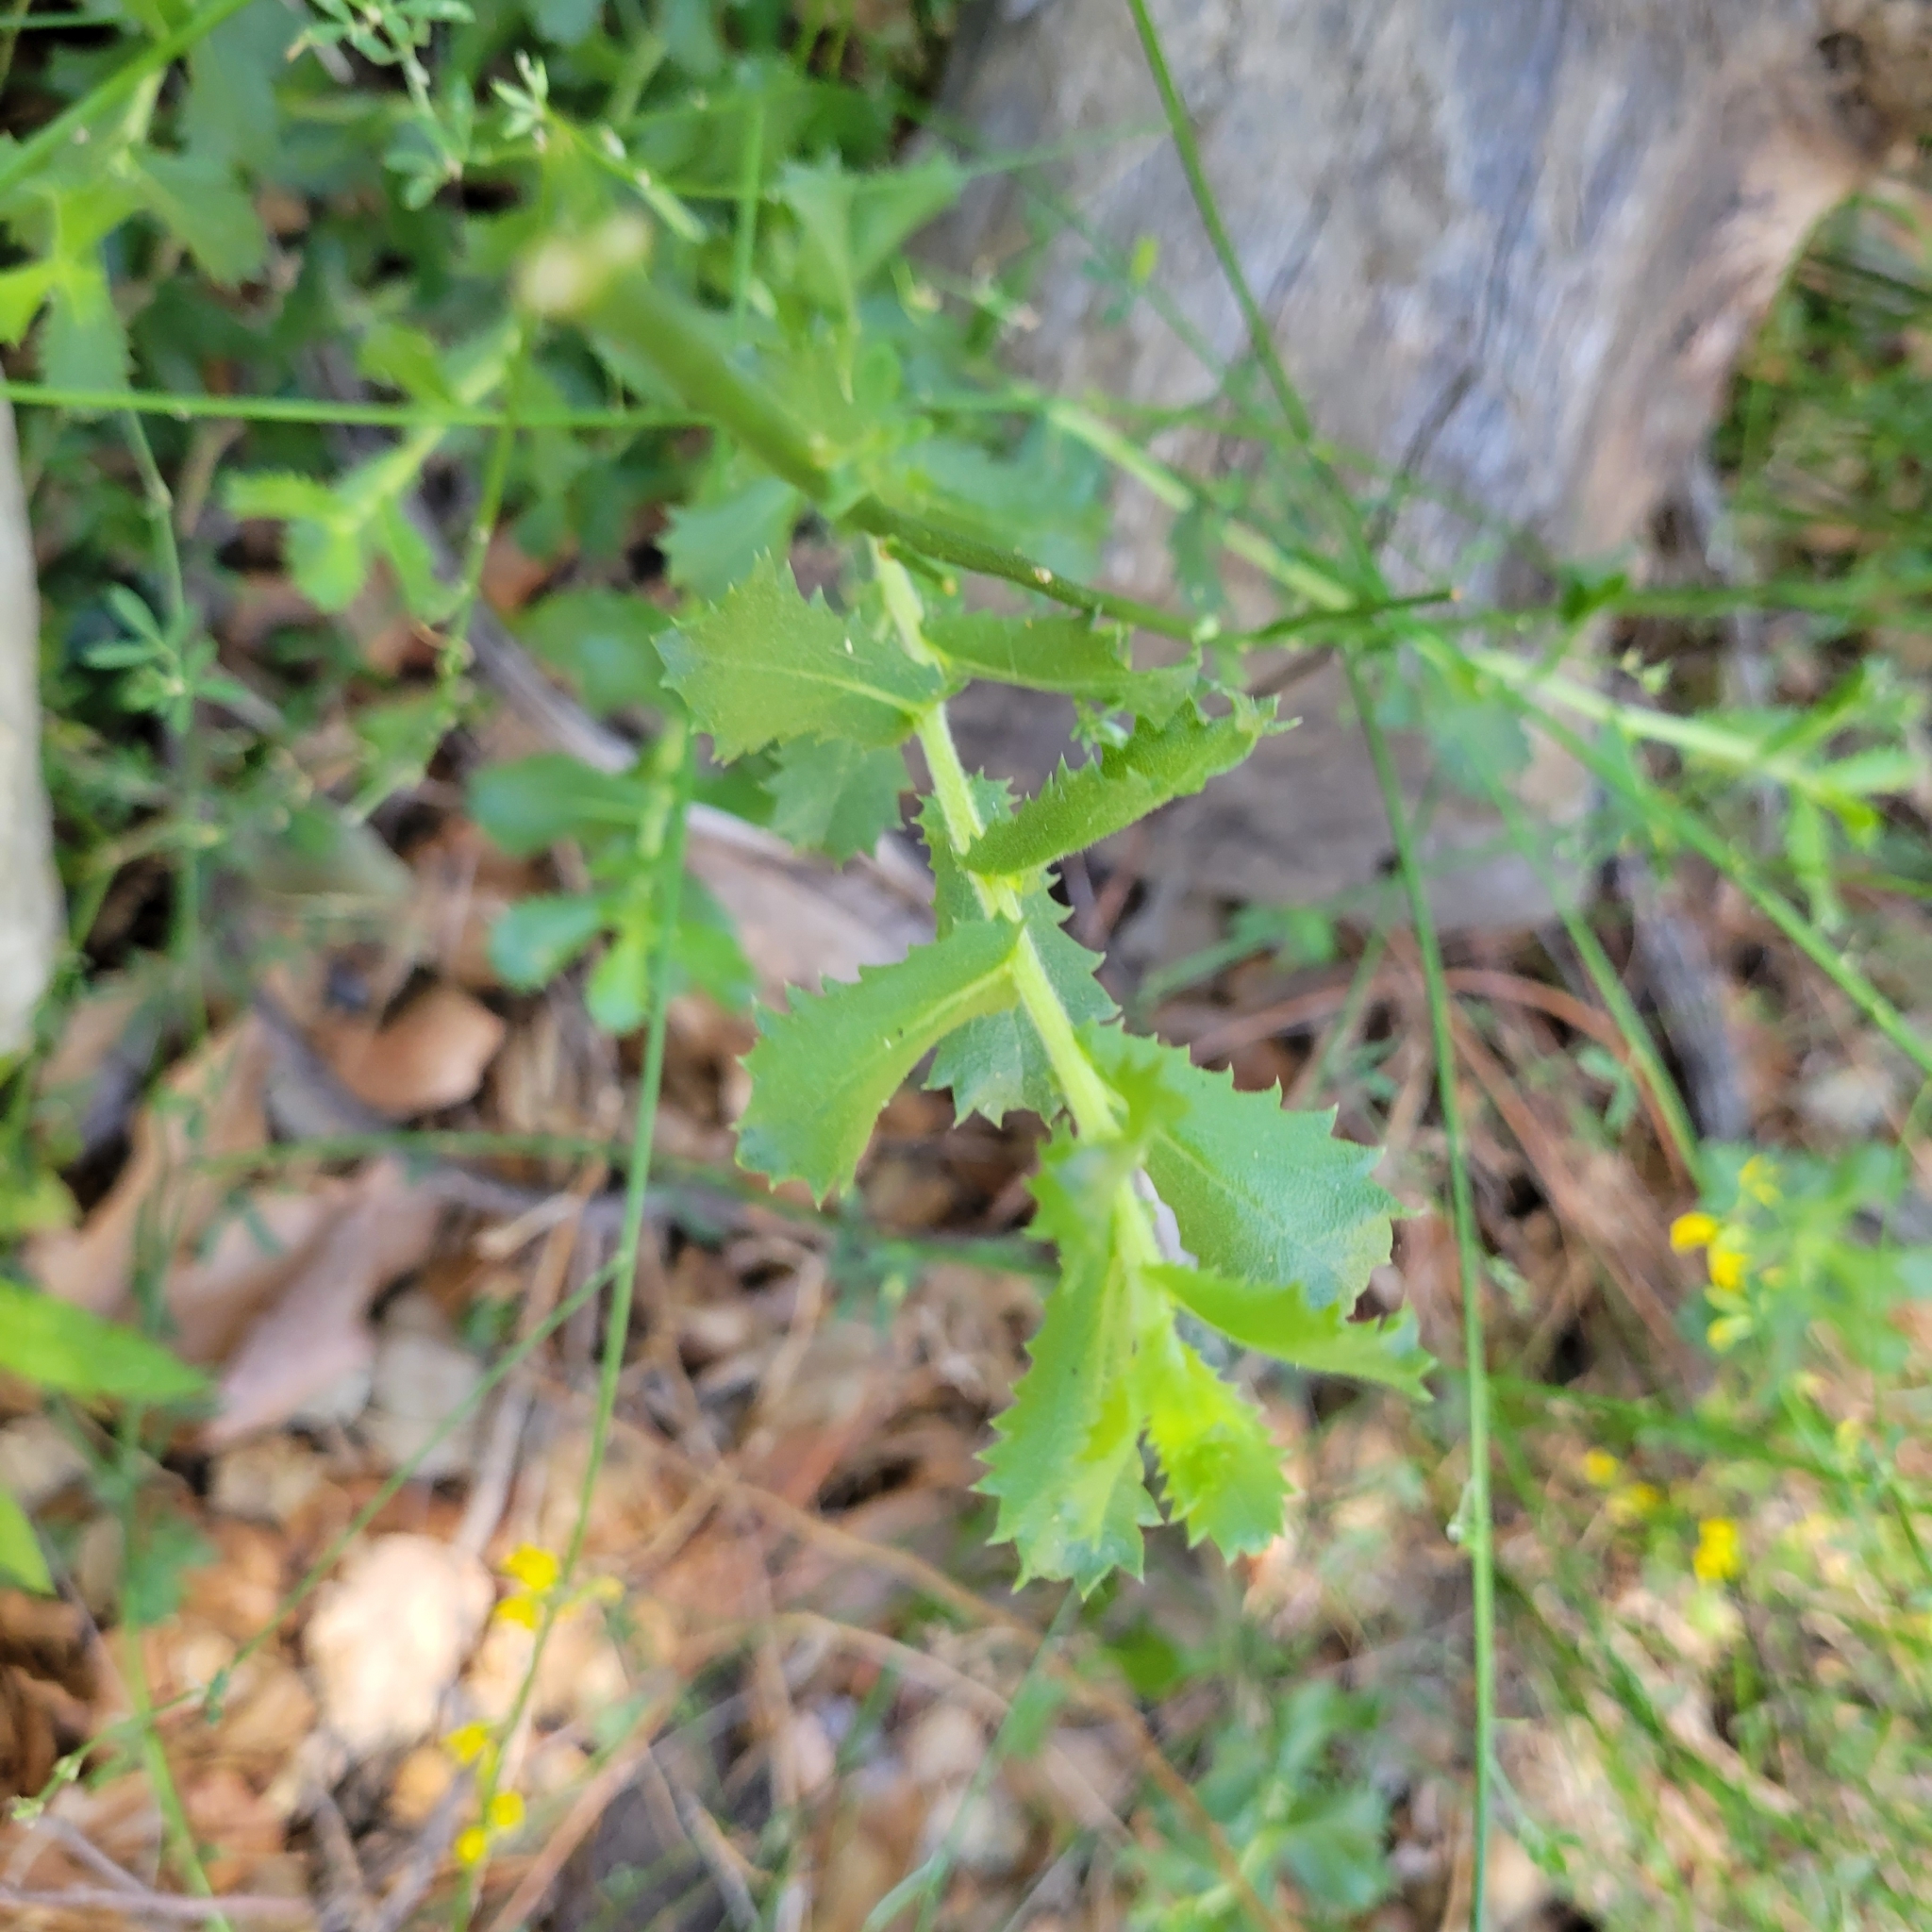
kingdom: Plantae
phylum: Tracheophyta
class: Magnoliopsida
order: Asterales
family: Asteraceae
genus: Hazardia
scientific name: Hazardia squarrosa
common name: Saw-tooth goldenbush
